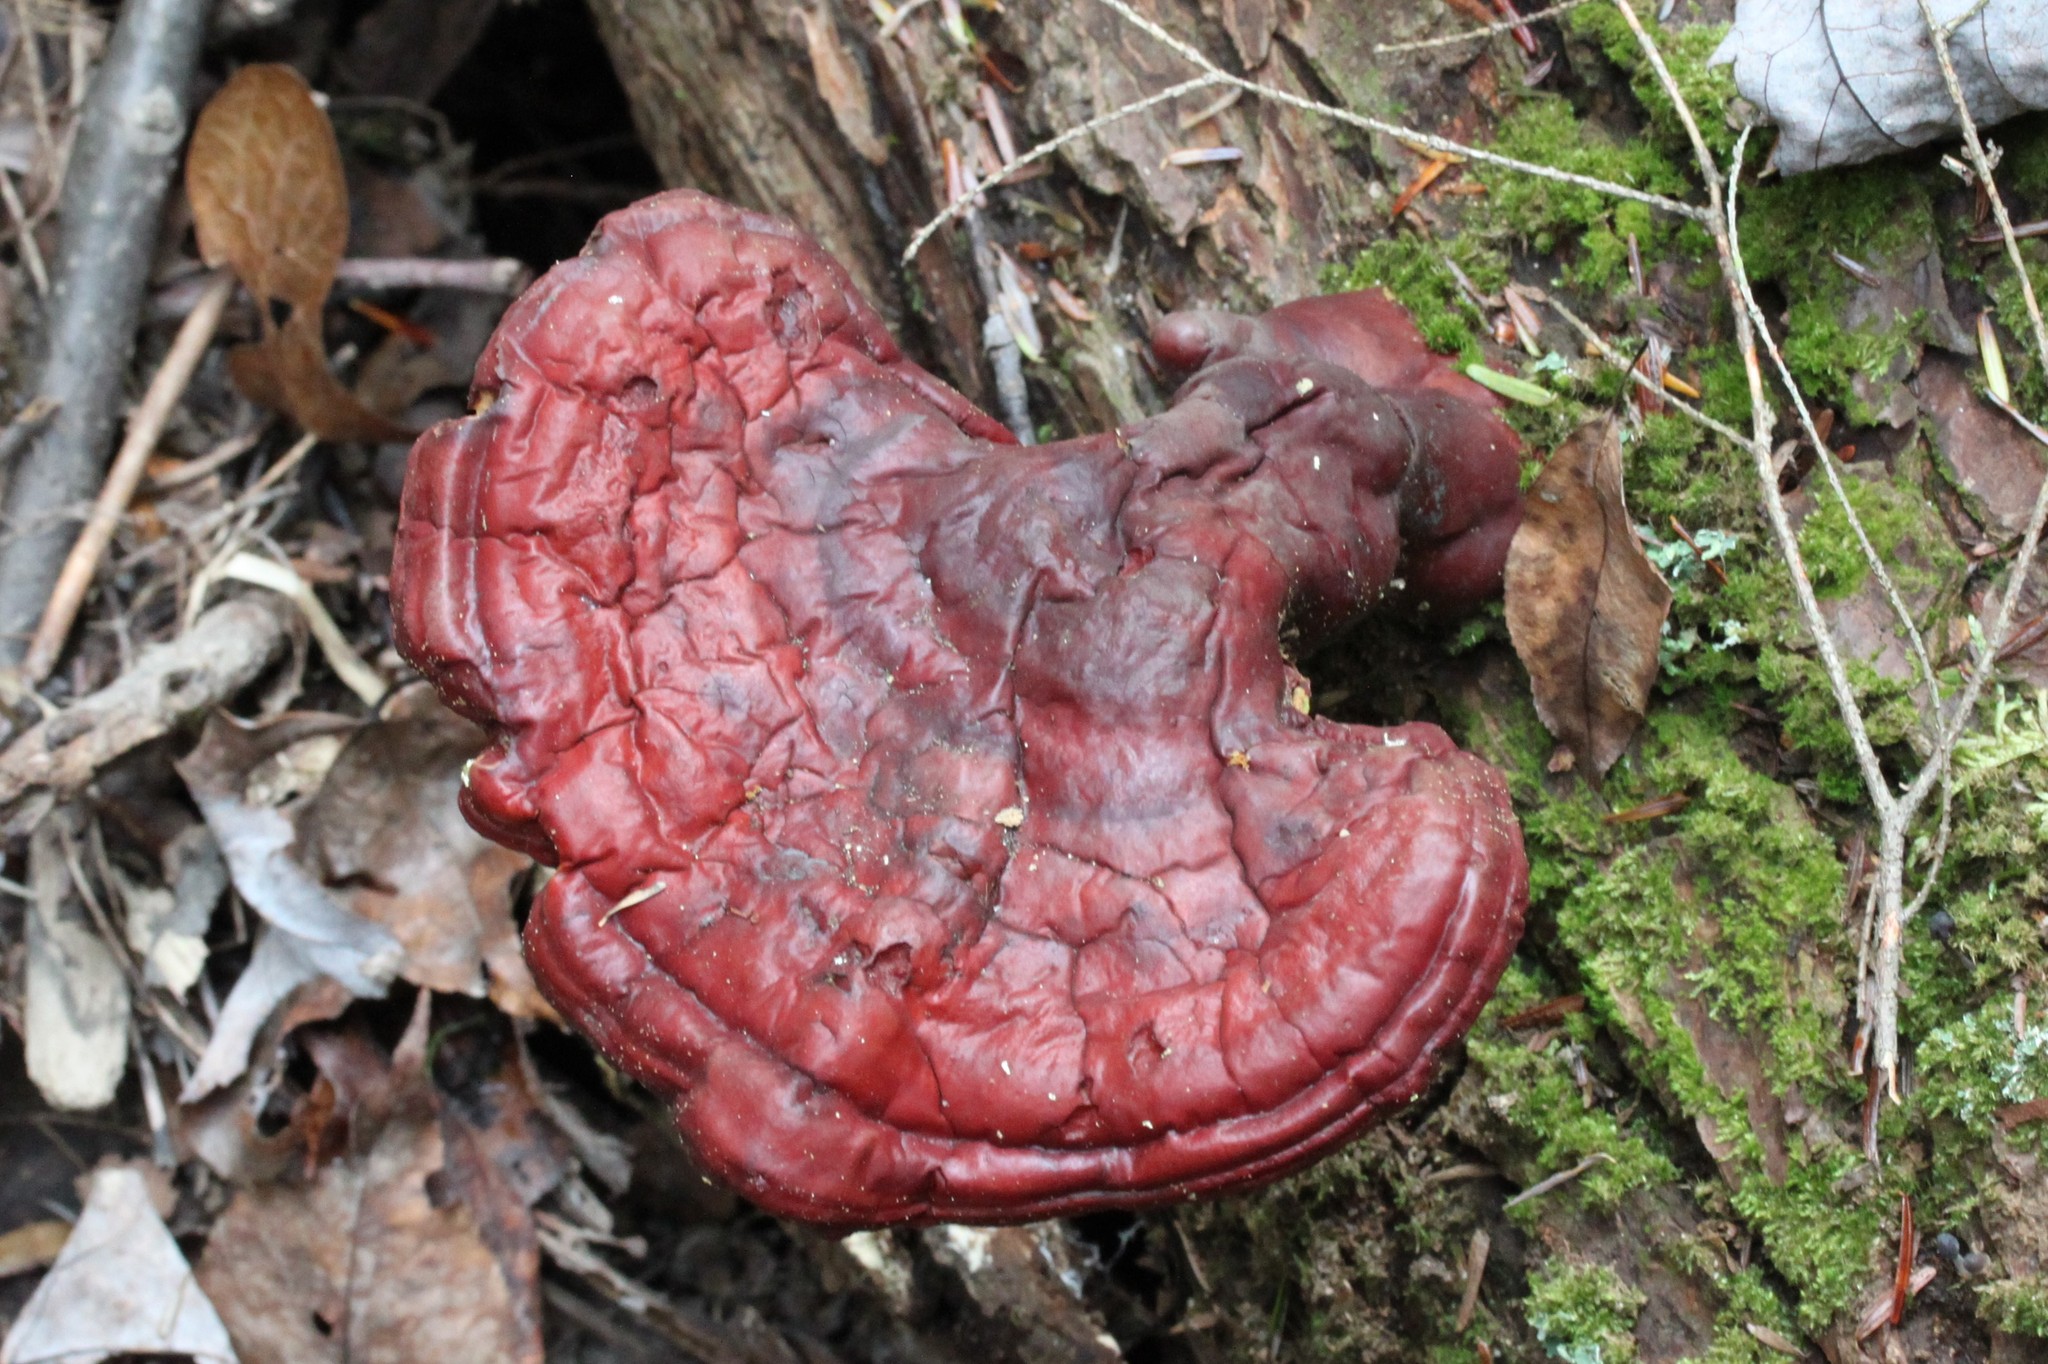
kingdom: Fungi
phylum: Basidiomycota
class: Agaricomycetes
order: Polyporales
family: Polyporaceae
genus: Ganoderma
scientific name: Ganoderma tsugae
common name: Hemlock varnish shelf
